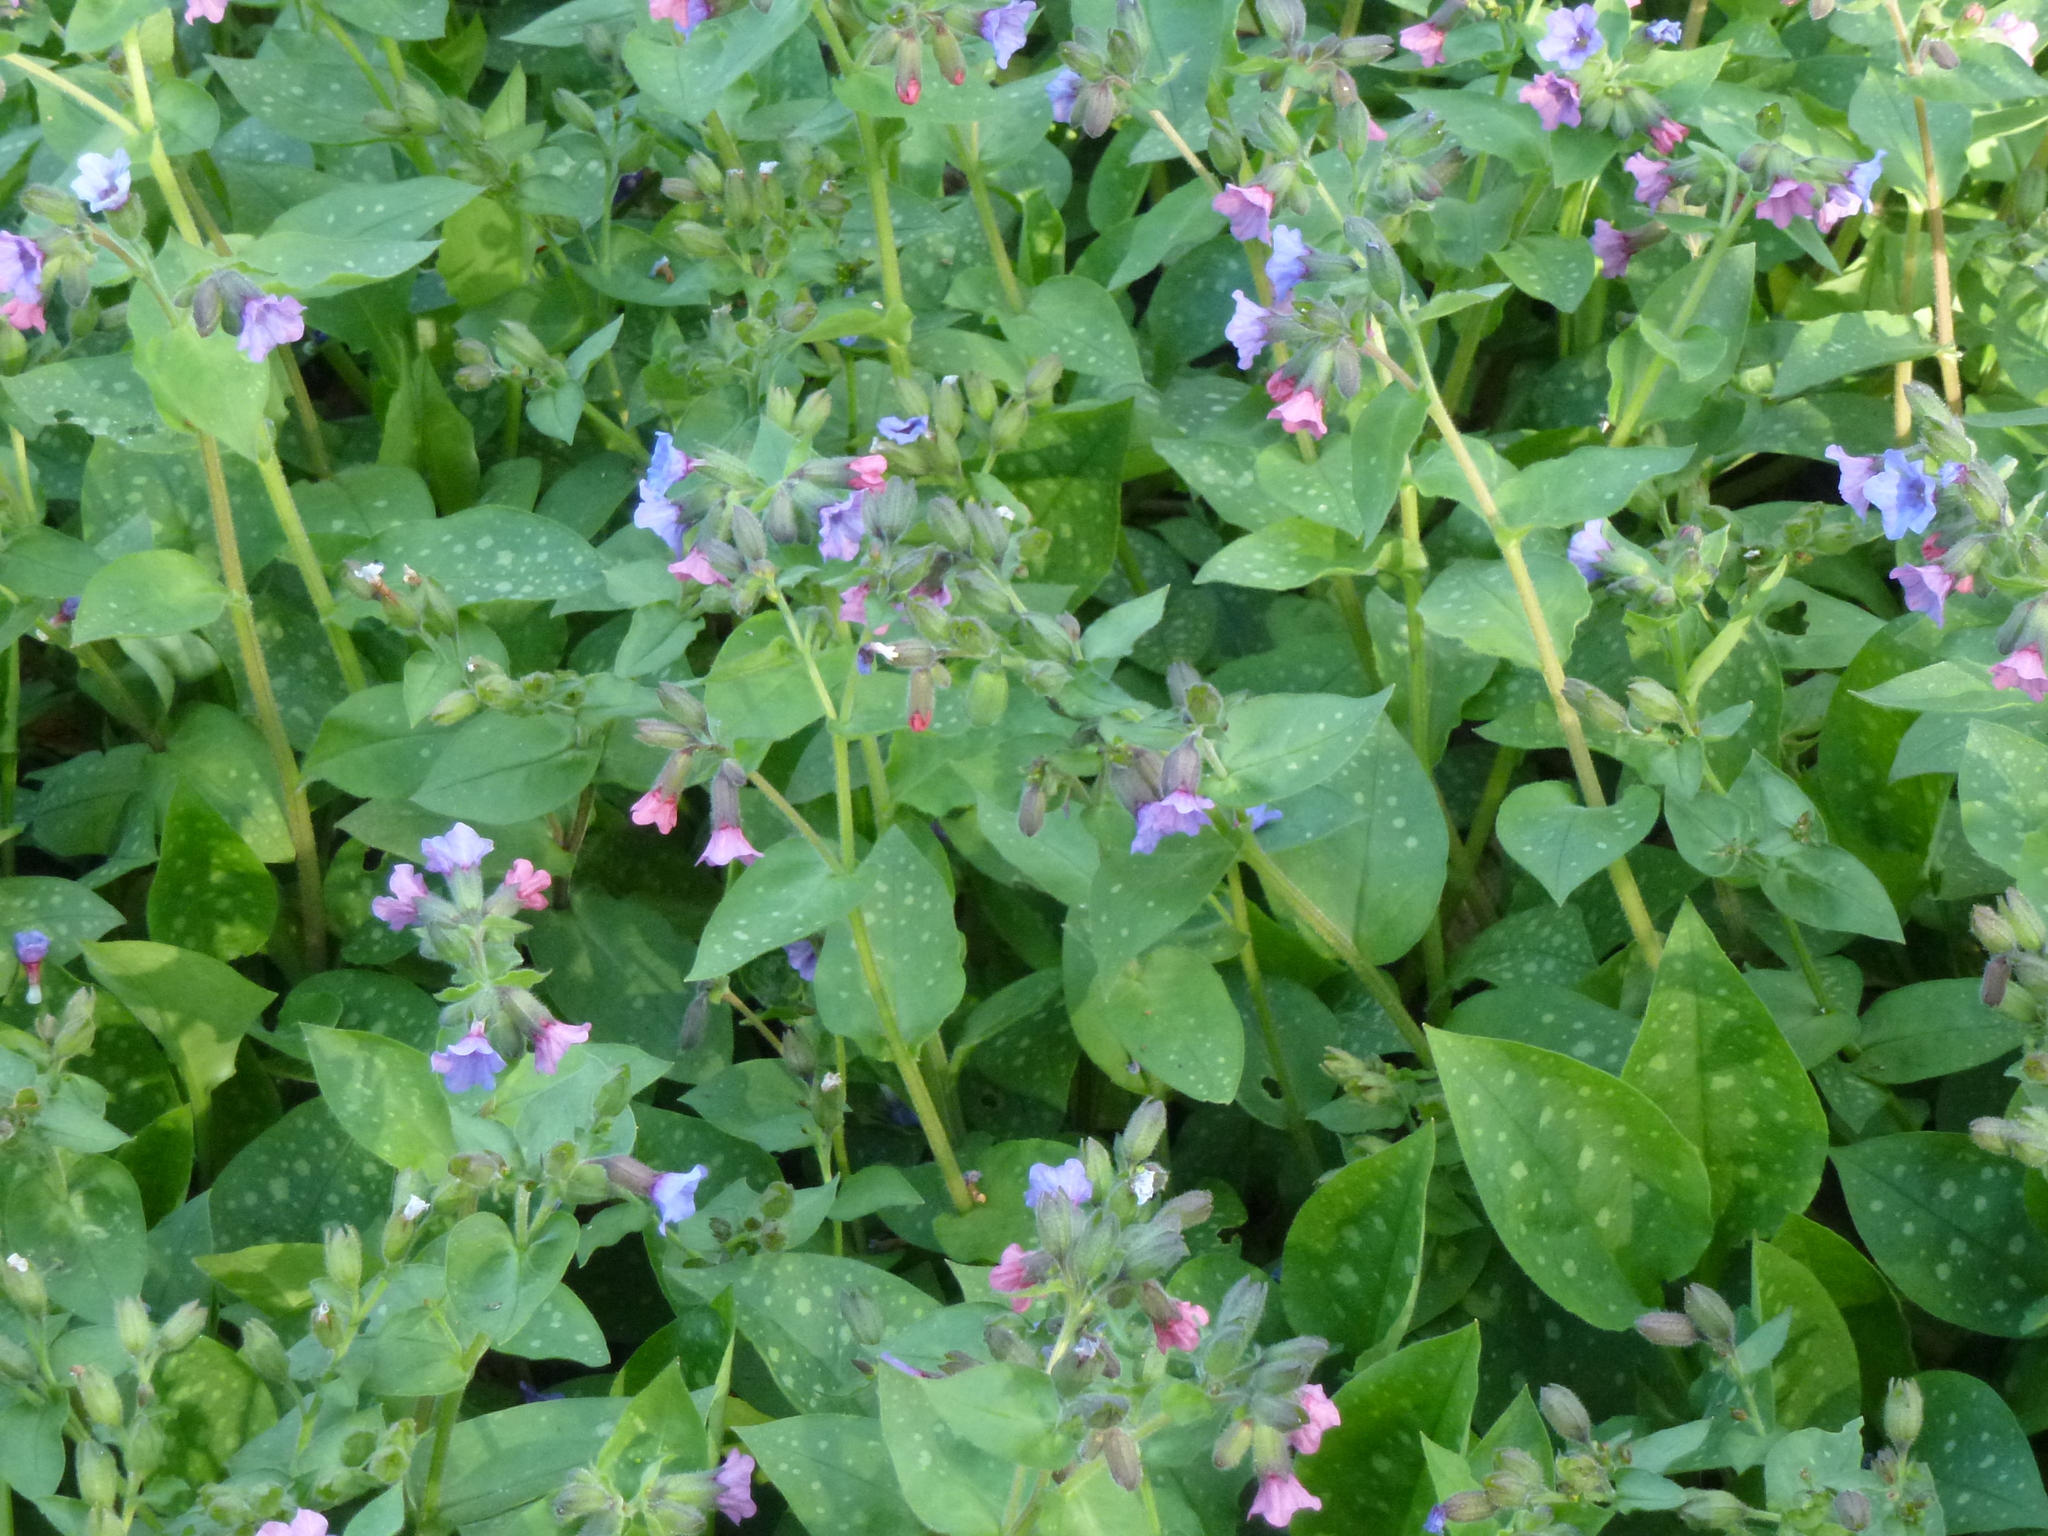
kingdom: Plantae
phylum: Tracheophyta
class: Magnoliopsida
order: Boraginales
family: Boraginaceae
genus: Pulmonaria
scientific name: Pulmonaria officinalis
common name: Lungwort
